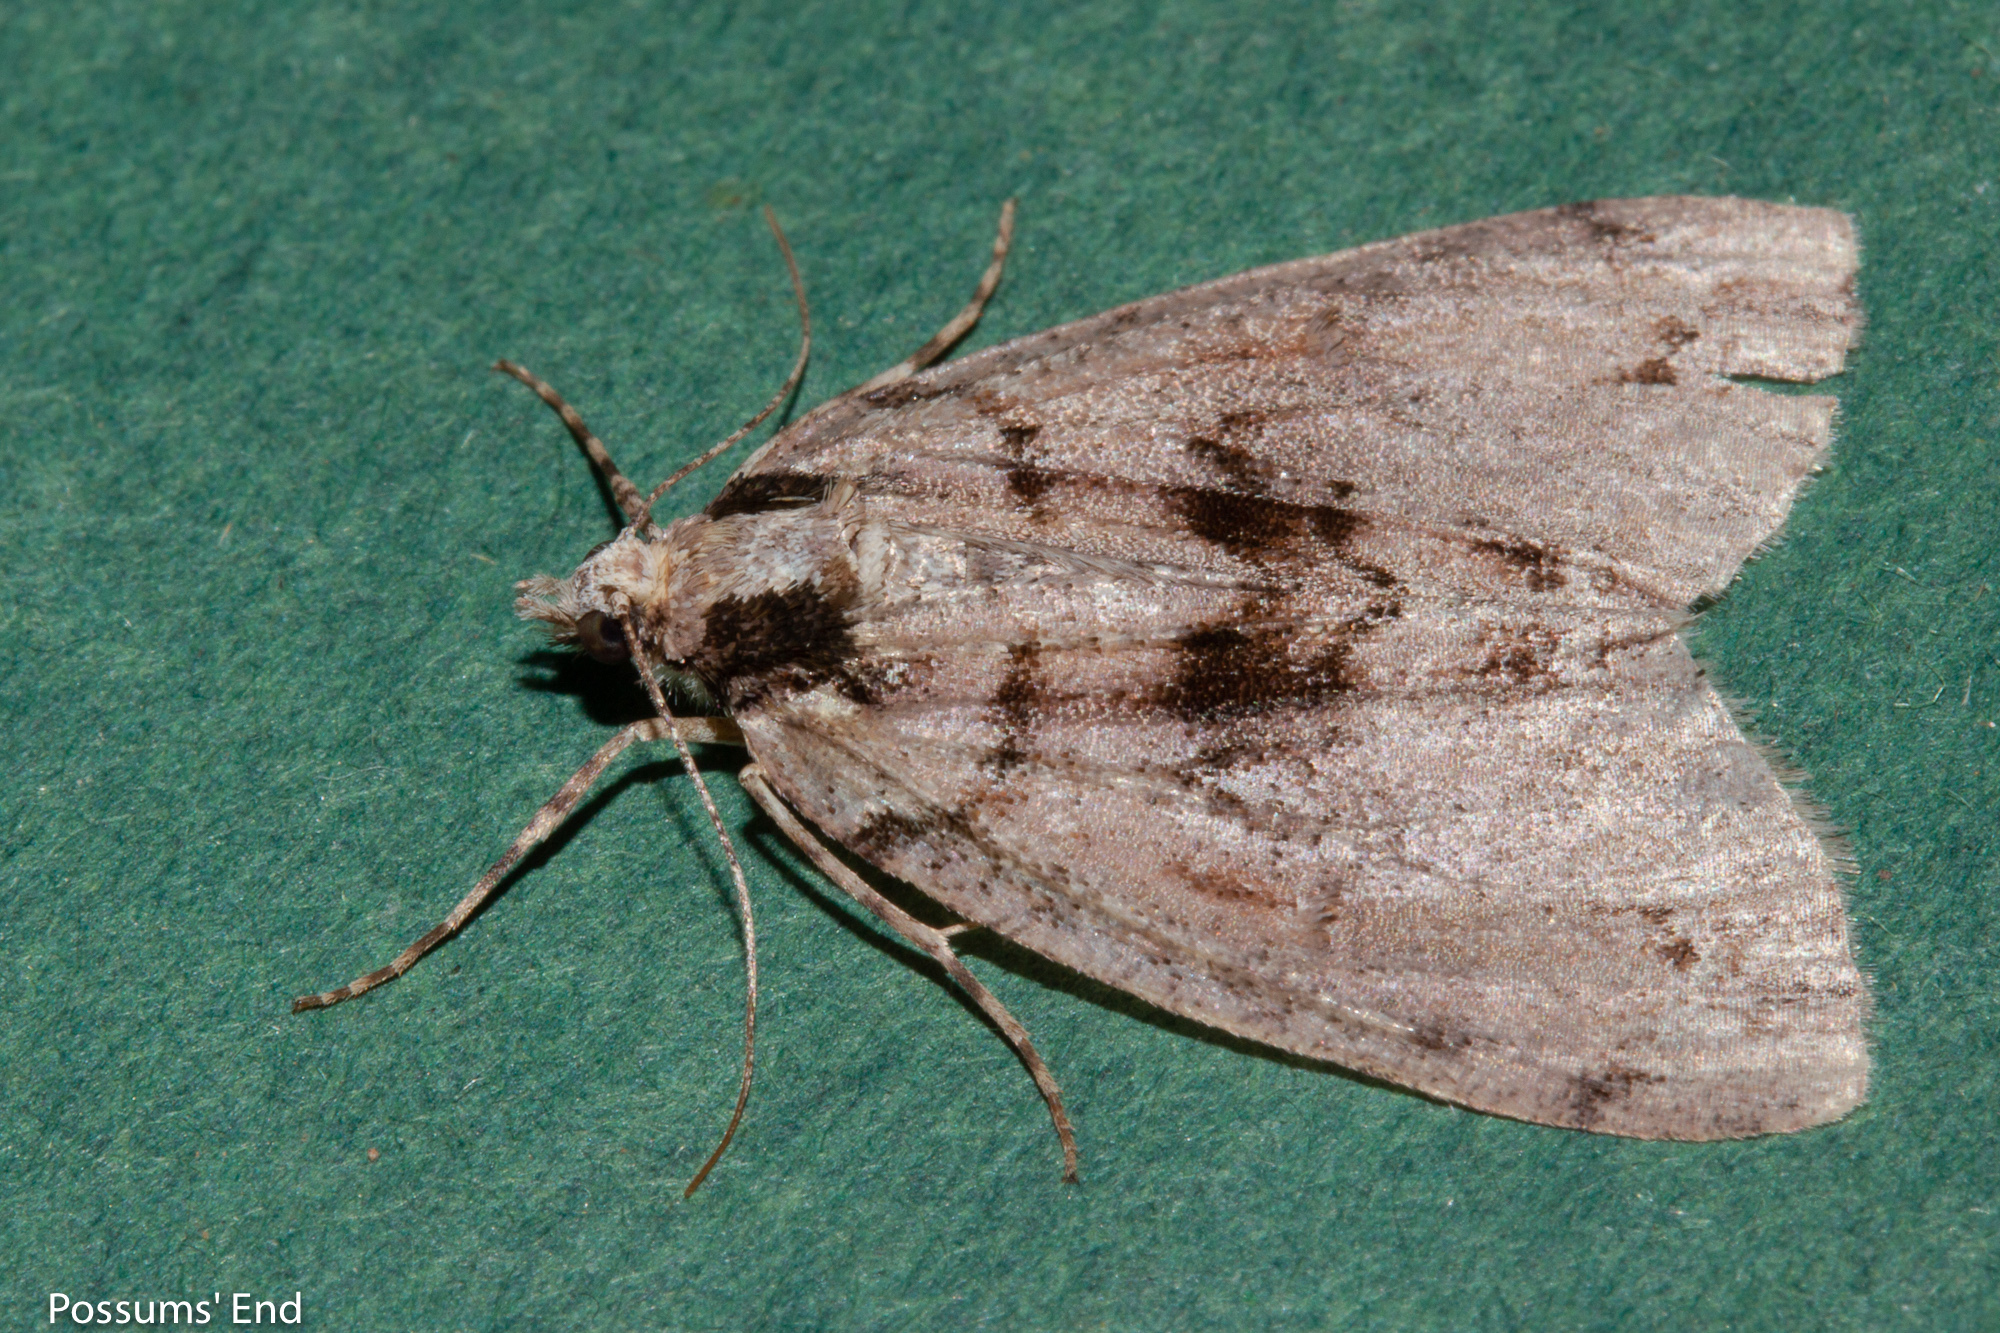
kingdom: Animalia
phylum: Arthropoda
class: Insecta
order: Lepidoptera
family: Geometridae
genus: Pseudocoremia
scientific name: Pseudocoremia suavis
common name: Common forest looper
